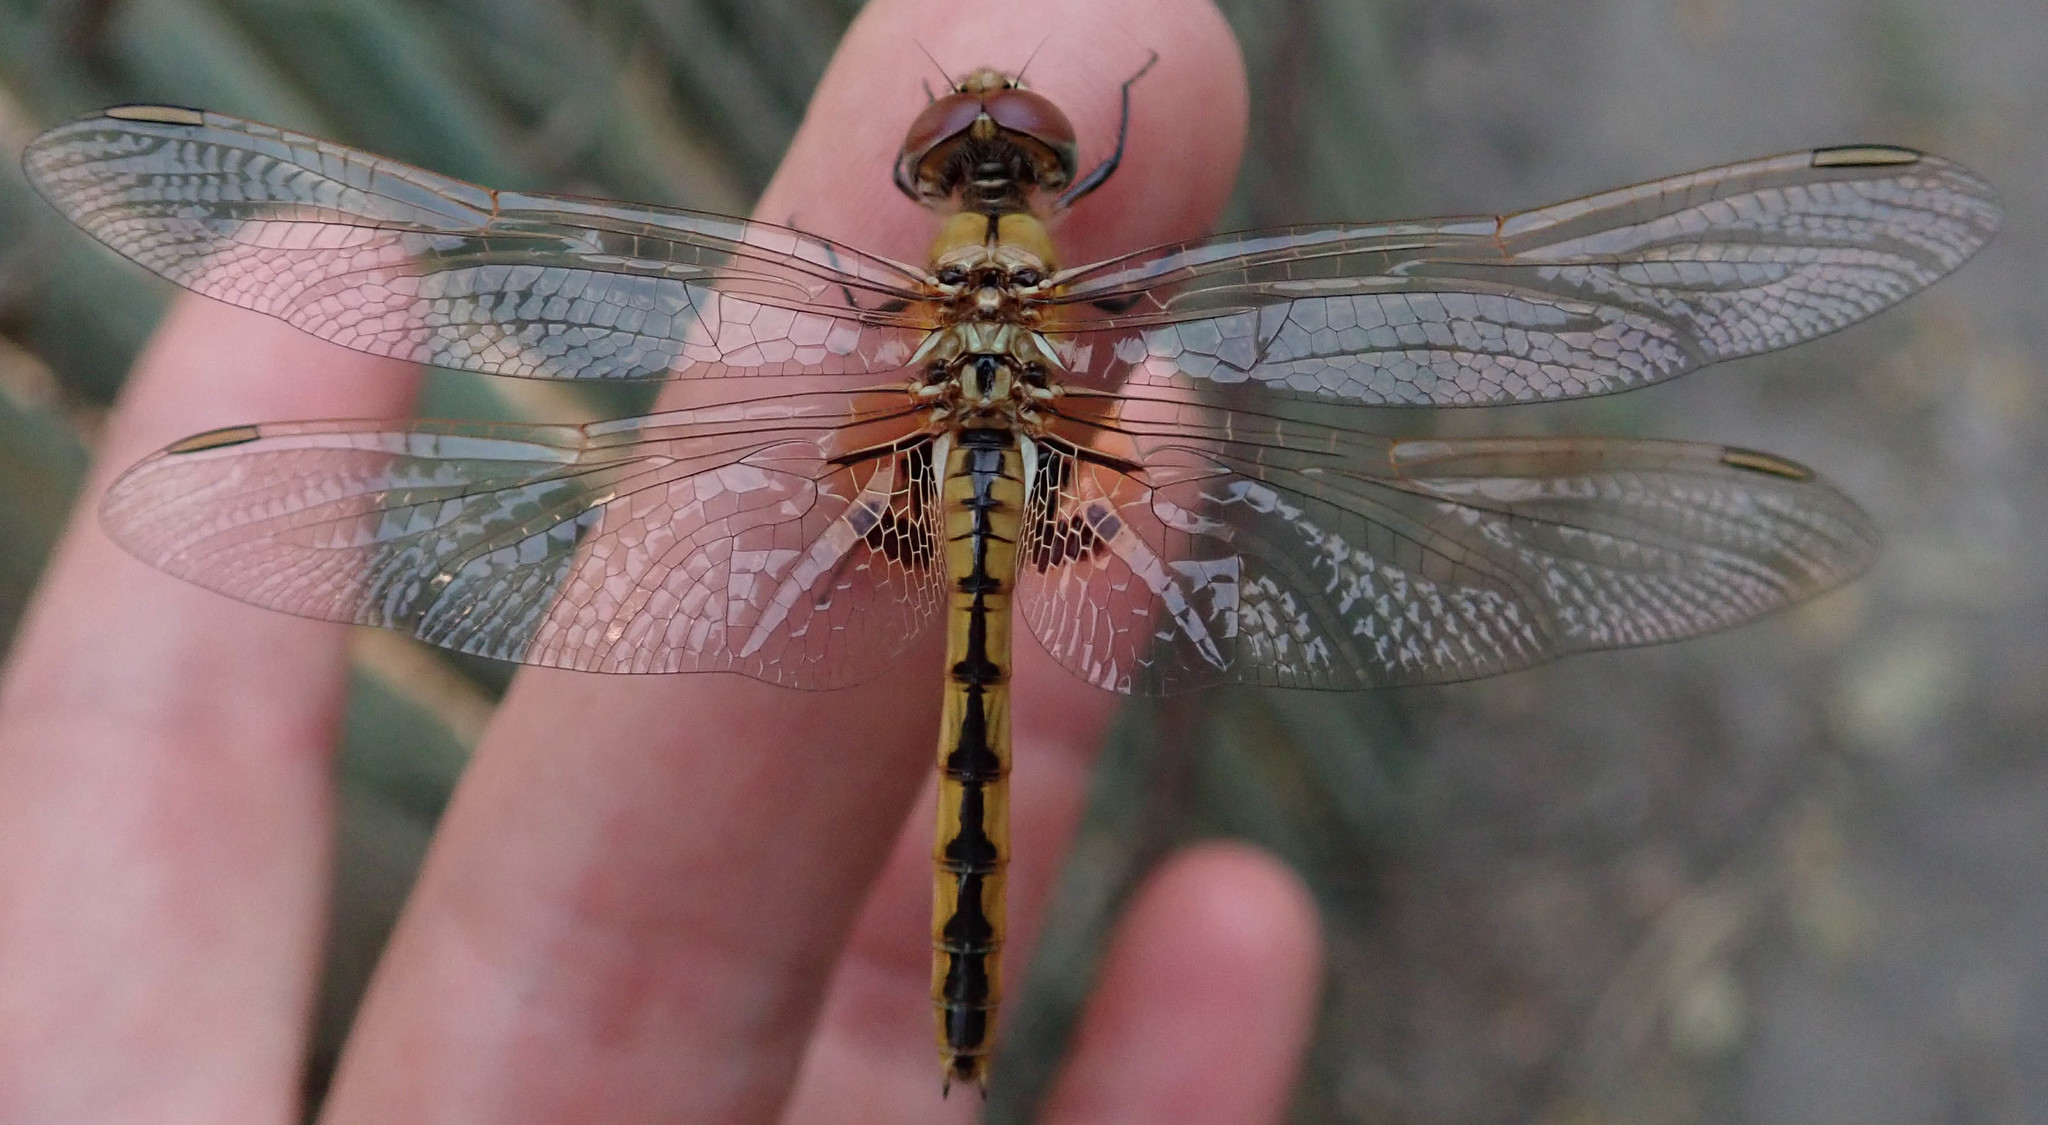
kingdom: Animalia
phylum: Arthropoda
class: Insecta
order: Odonata
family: Libellulidae
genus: Urothemis
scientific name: Urothemis edwardsii
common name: Blue basker
